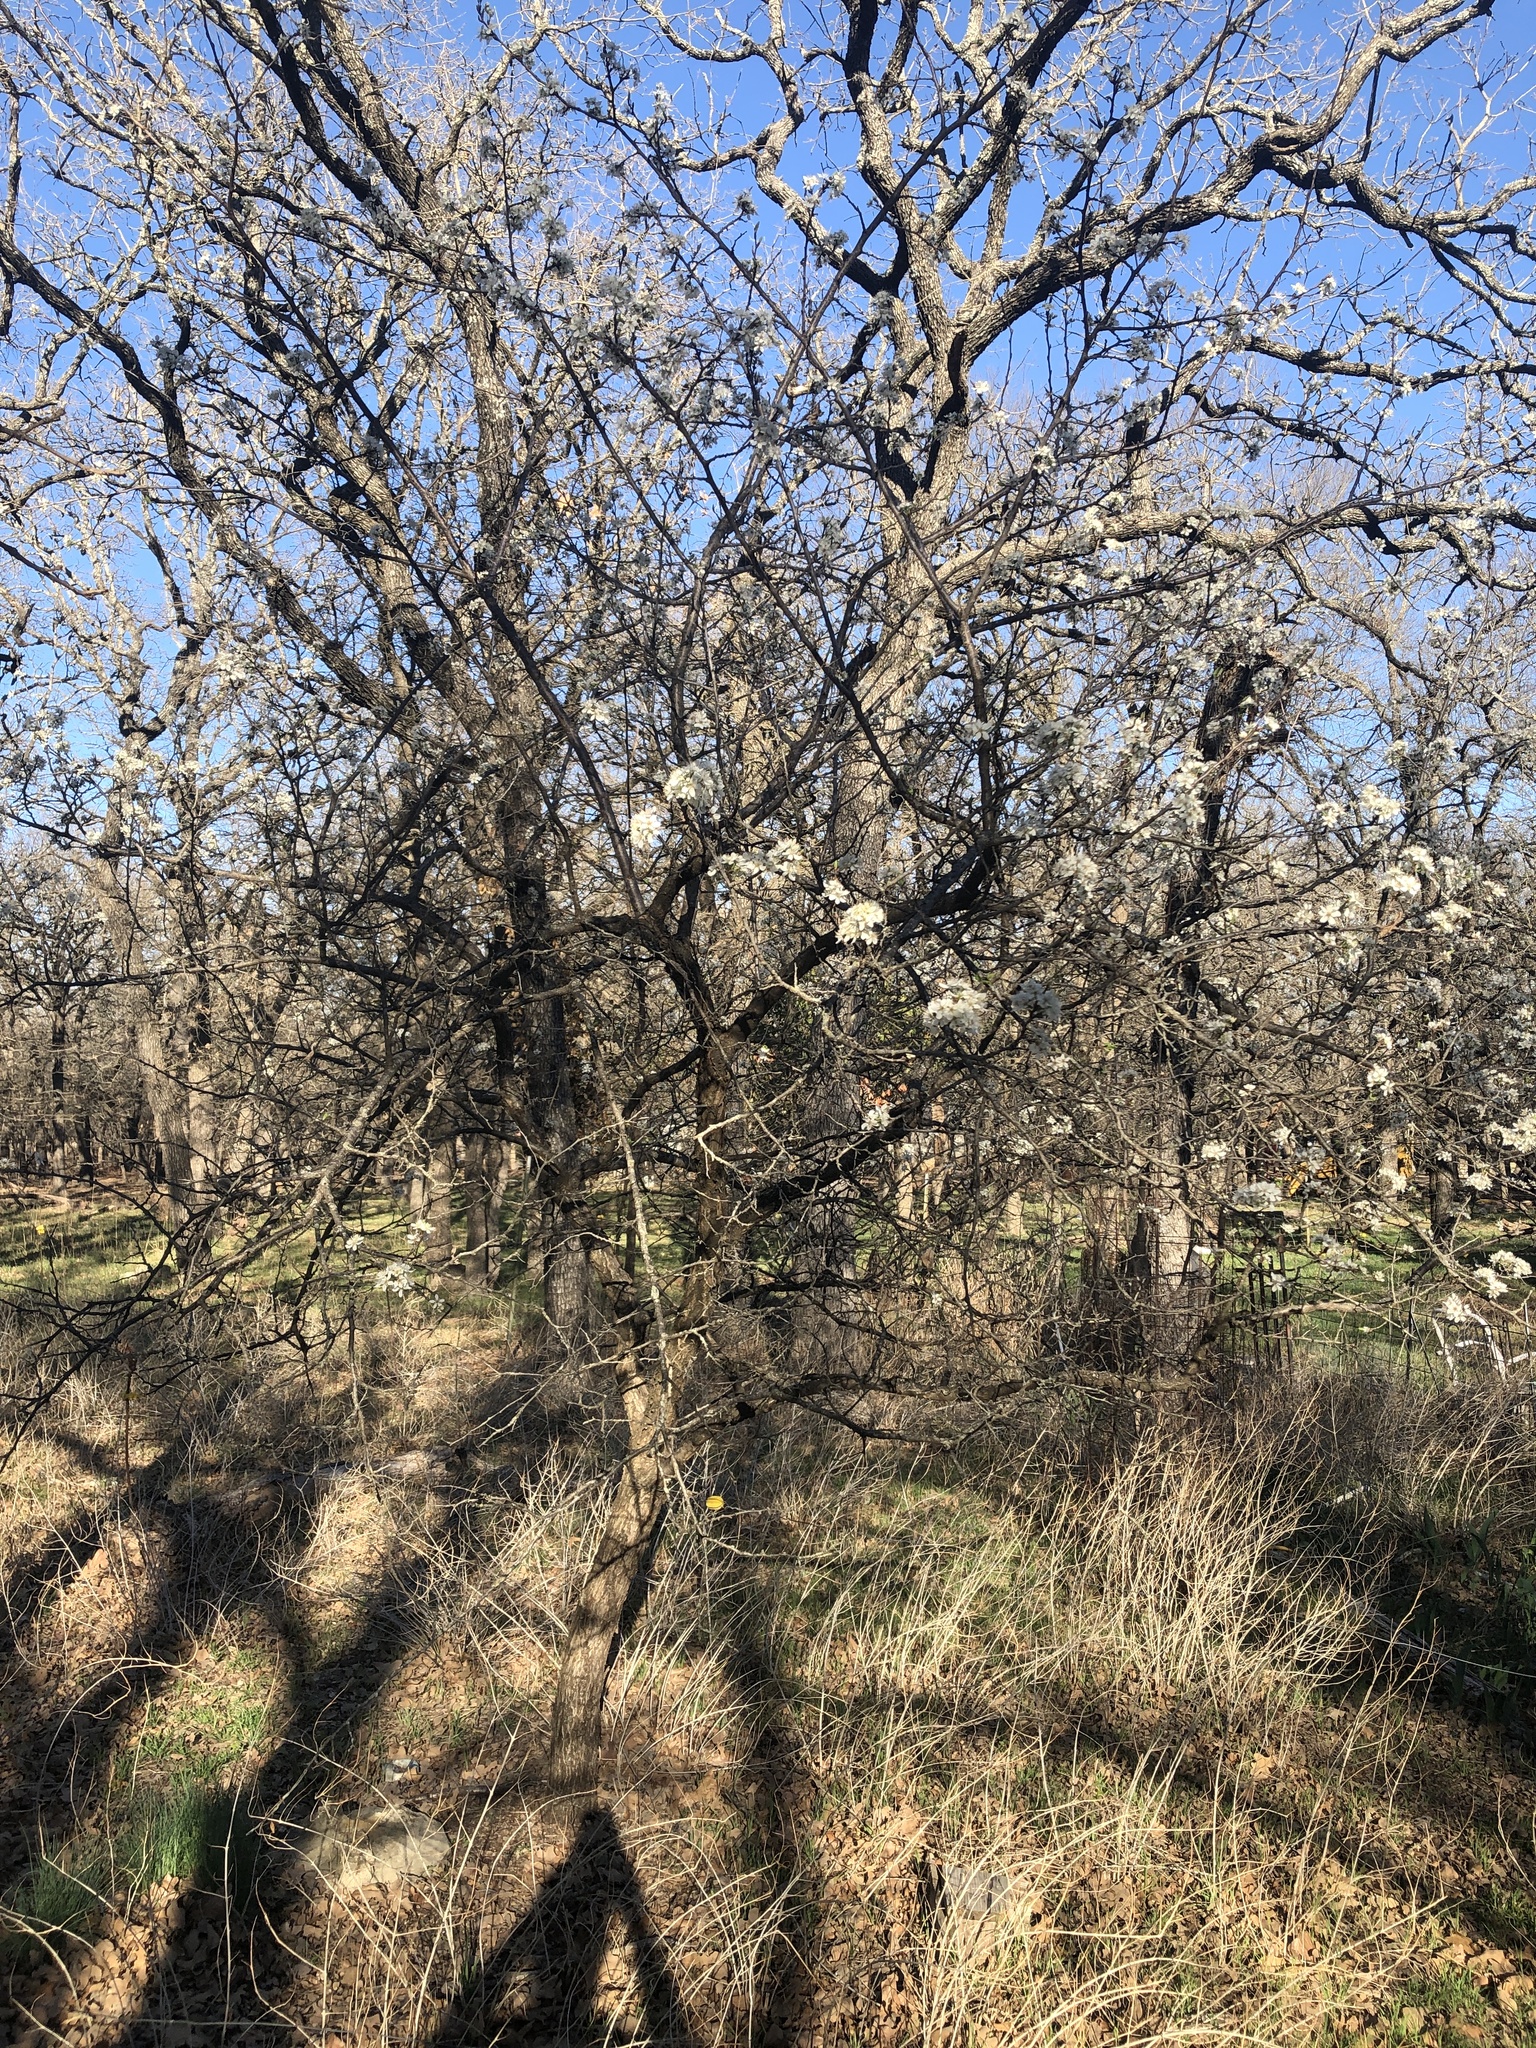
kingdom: Plantae
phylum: Tracheophyta
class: Magnoliopsida
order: Rosales
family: Rosaceae
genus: Prunus
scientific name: Prunus mexicana
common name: Mexican plum
